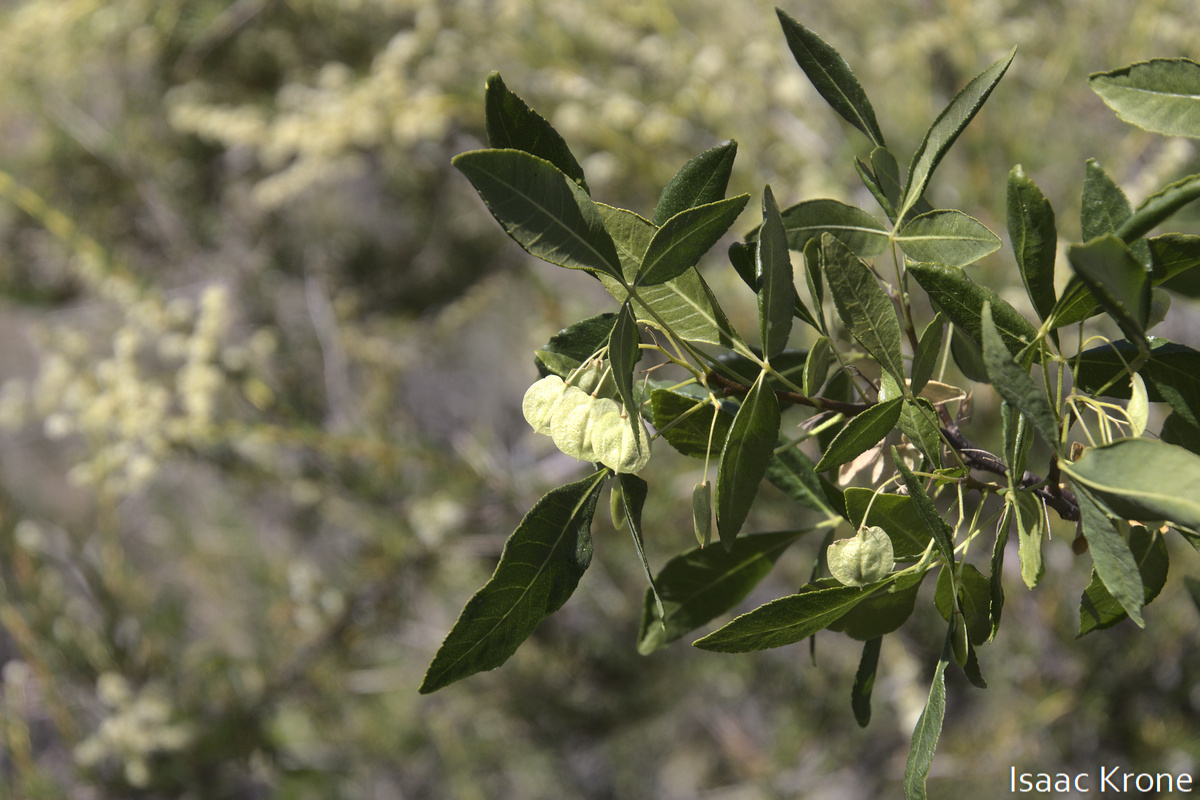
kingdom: Plantae
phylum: Tracheophyta
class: Magnoliopsida
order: Sapindales
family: Rutaceae
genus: Ptelea
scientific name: Ptelea crenulata
